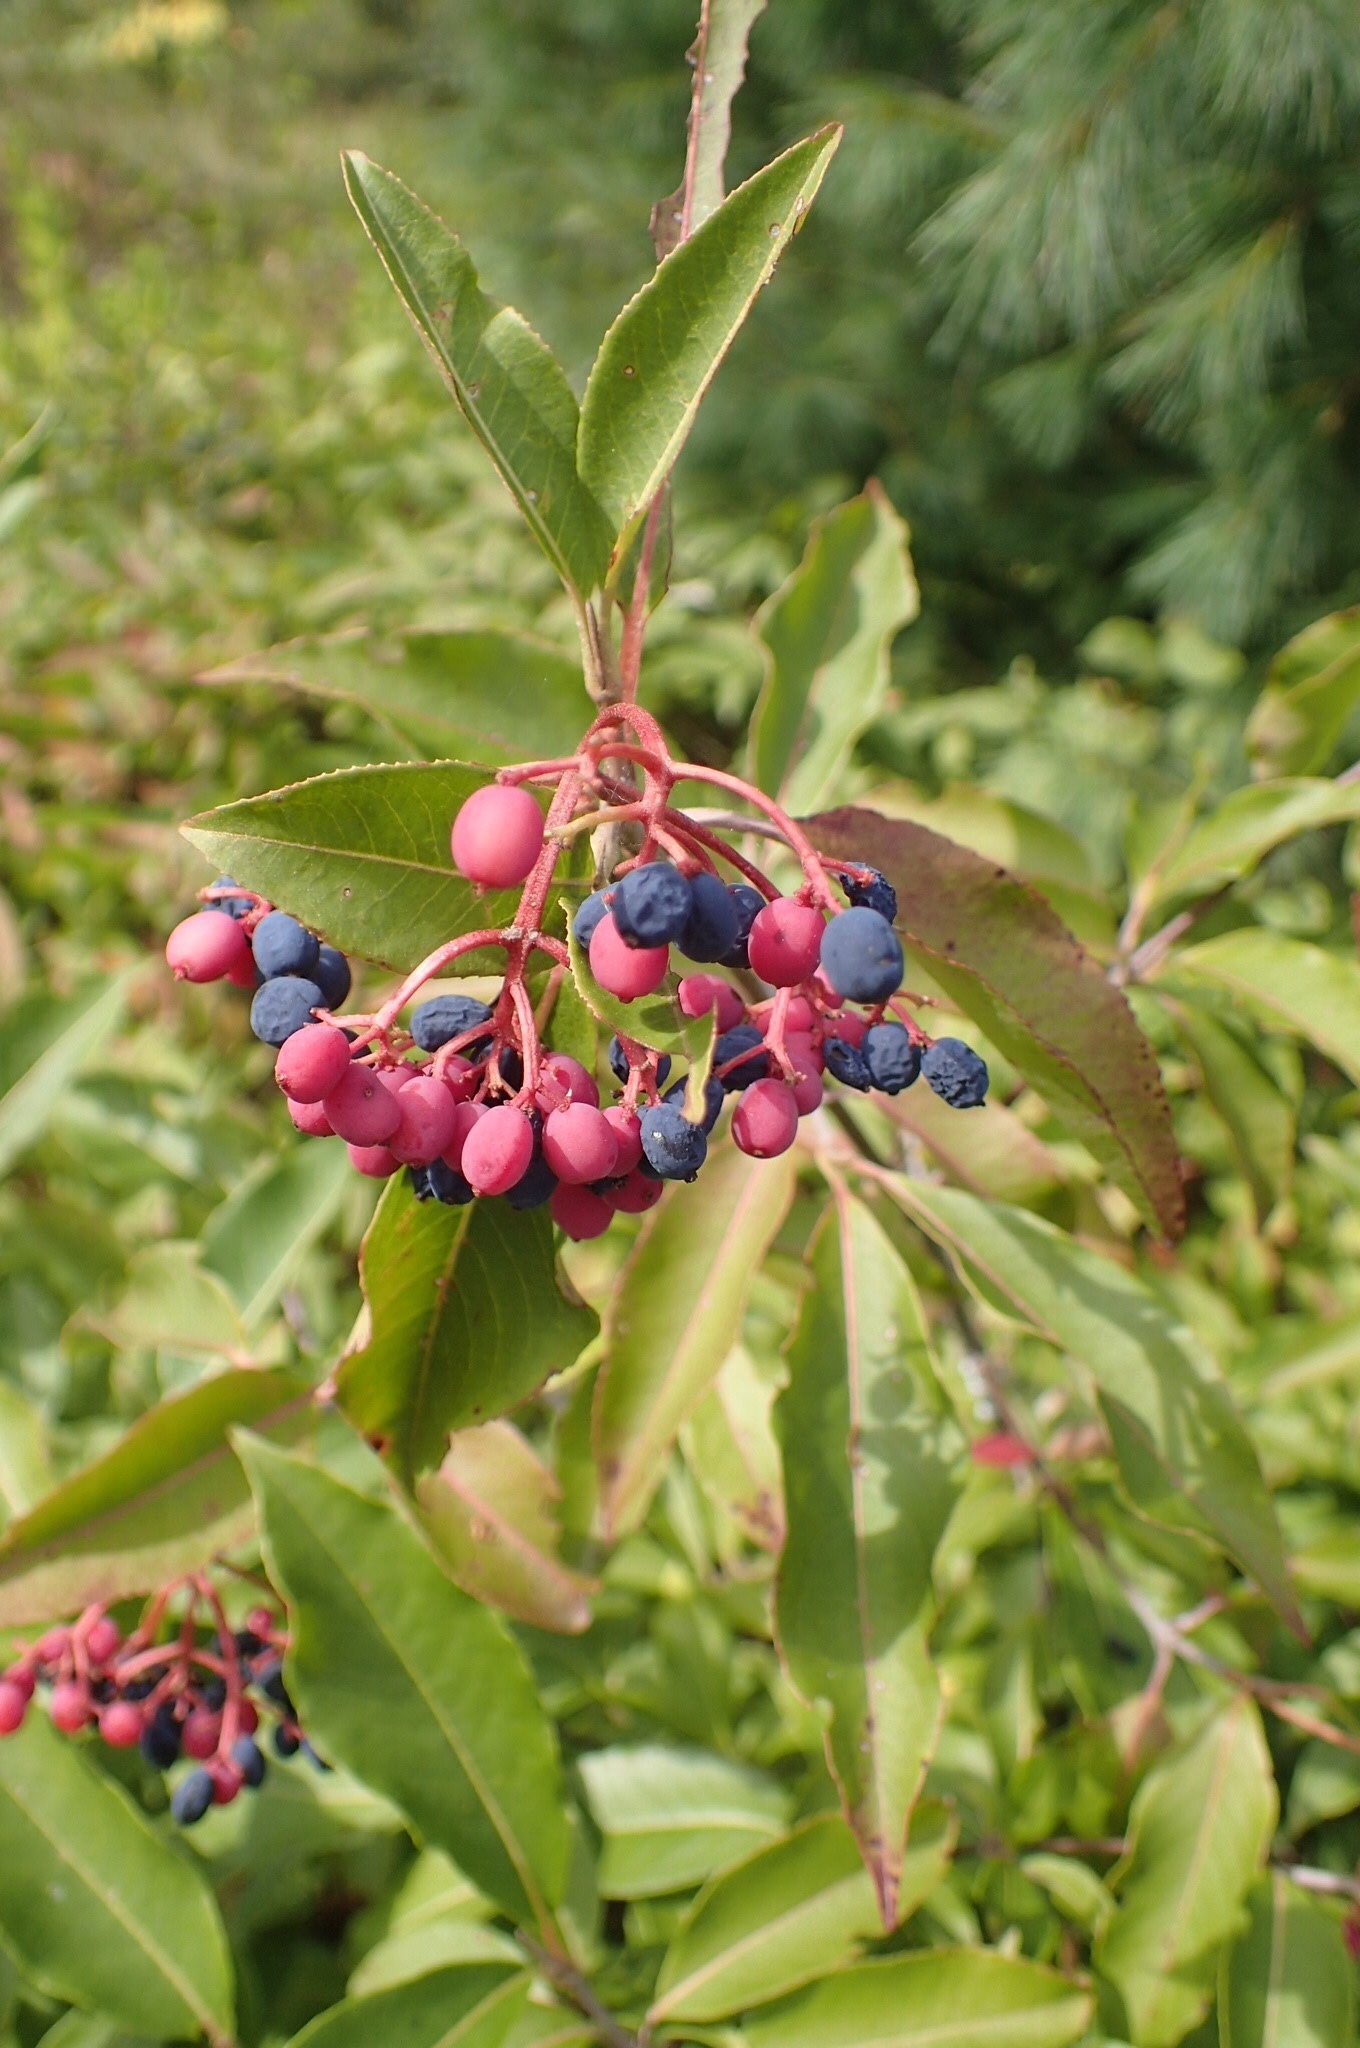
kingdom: Plantae
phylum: Tracheophyta
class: Magnoliopsida
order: Dipsacales
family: Viburnaceae
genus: Viburnum
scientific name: Viburnum cassinoides
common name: Swamp haw
